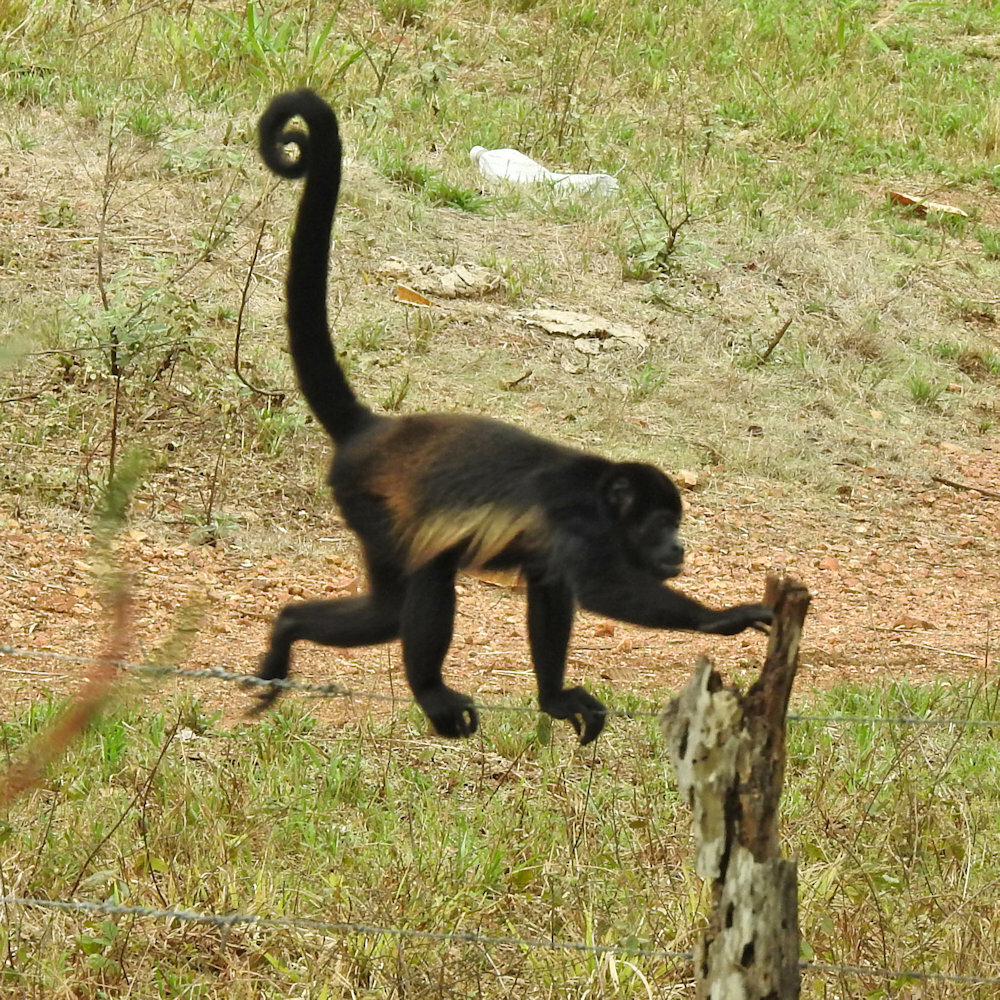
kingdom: Animalia
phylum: Chordata
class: Mammalia
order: Primates
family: Atelidae
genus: Alouatta
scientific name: Alouatta palliata
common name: Mantled howler
